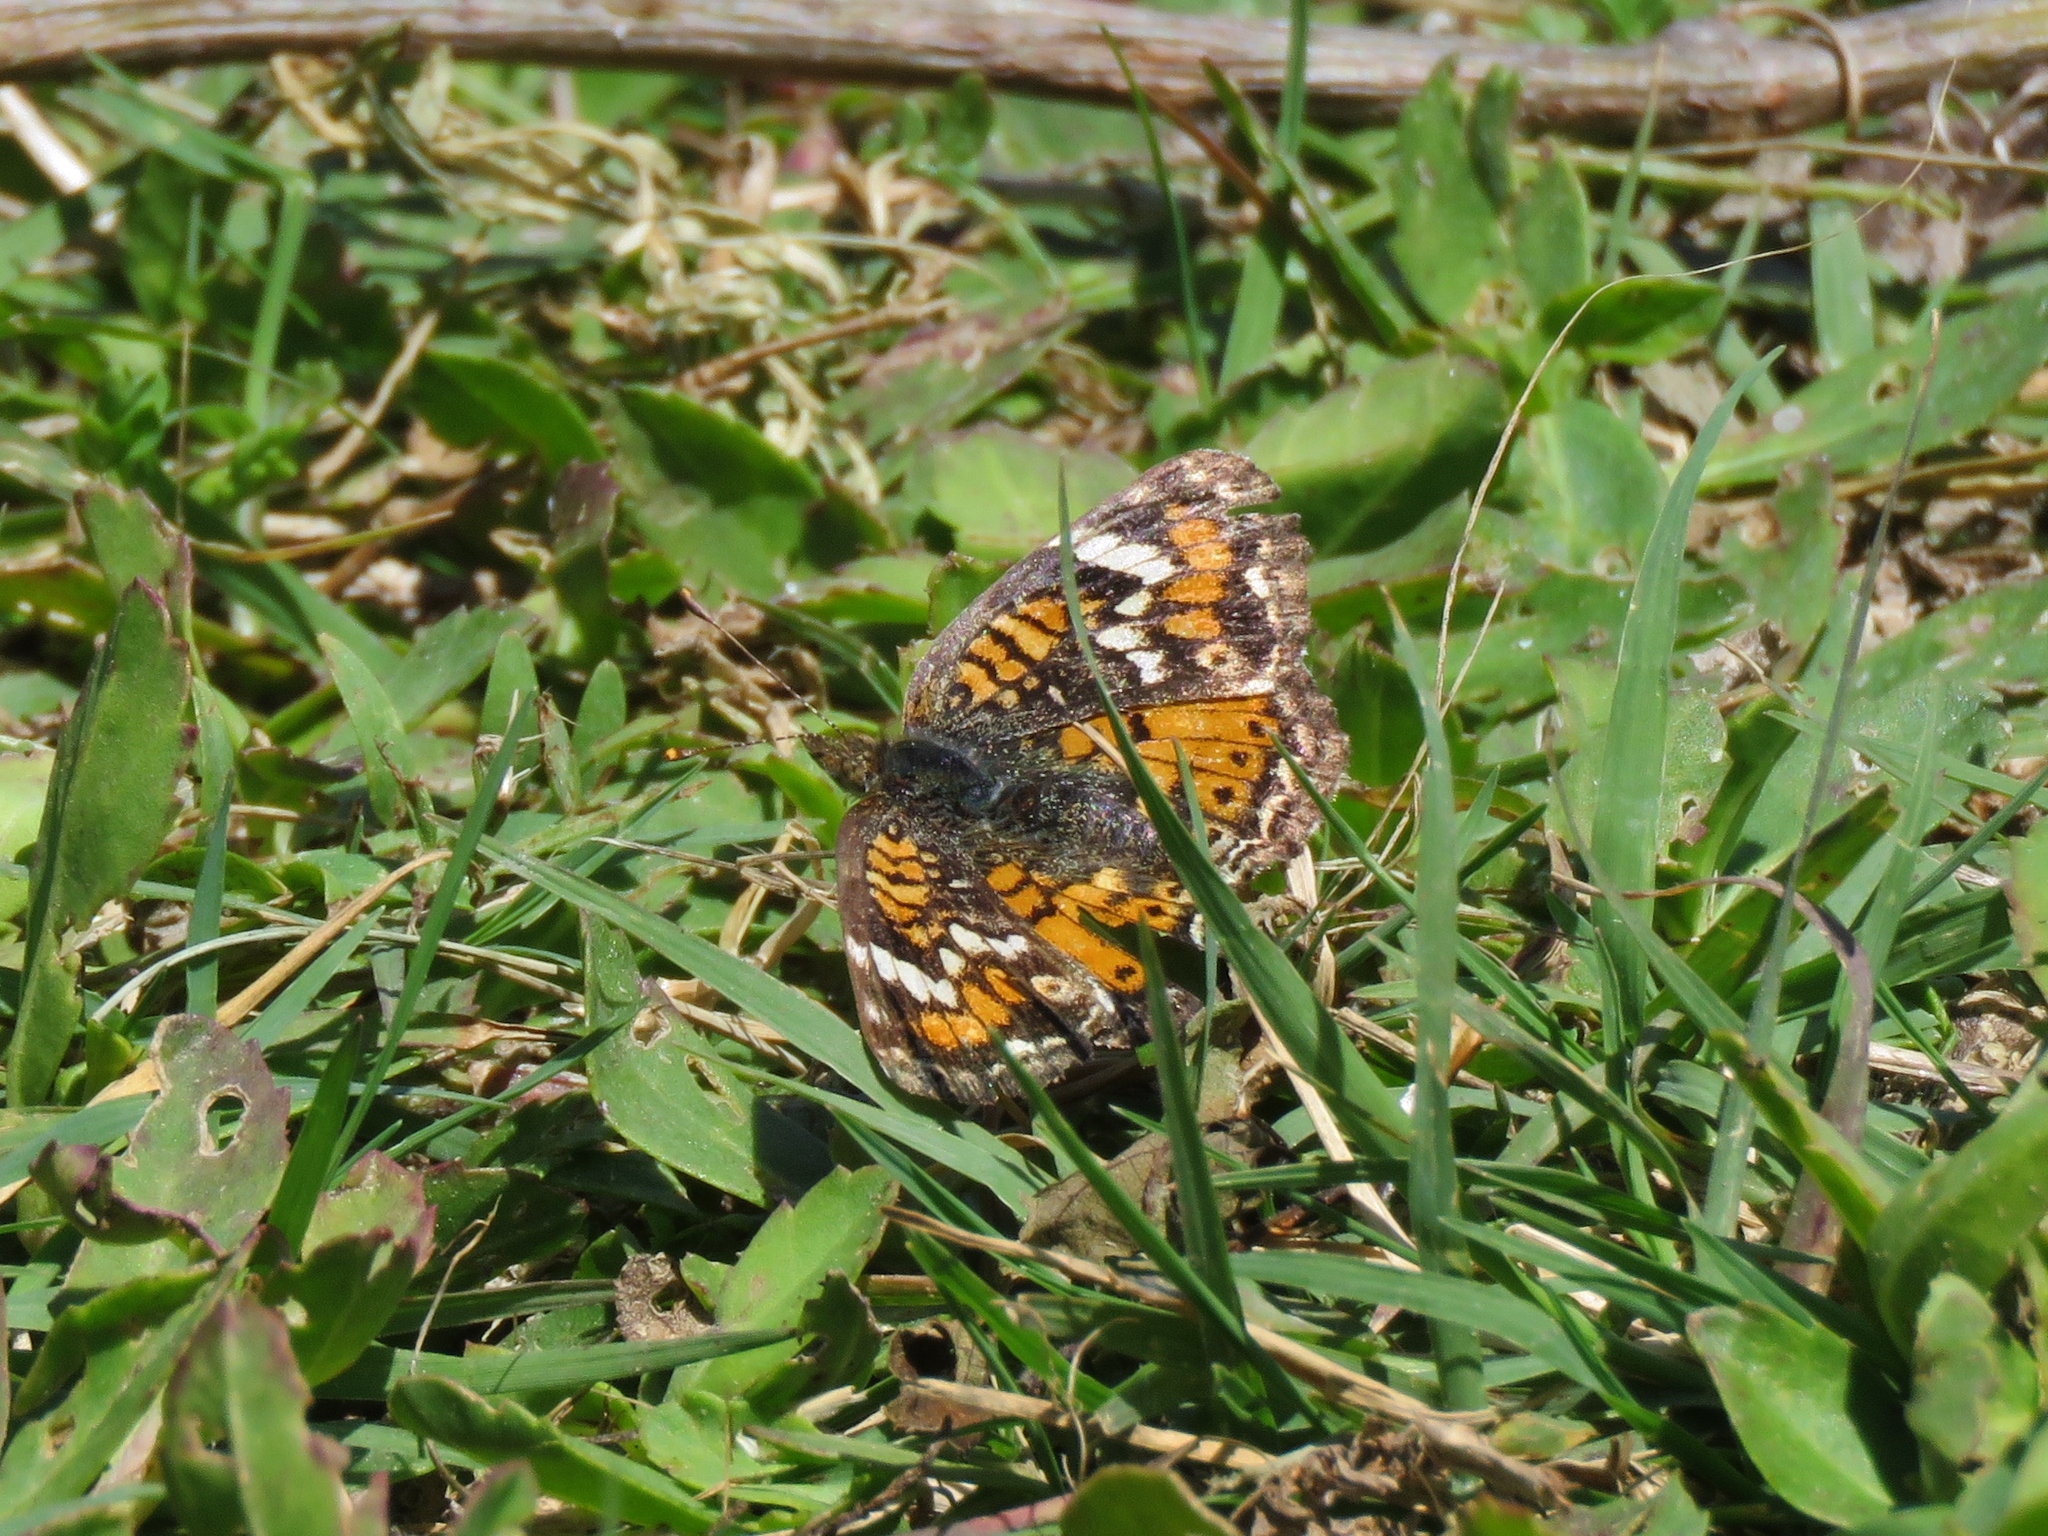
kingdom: Animalia
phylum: Arthropoda
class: Insecta
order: Lepidoptera
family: Nymphalidae
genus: Phyciodes
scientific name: Phyciodes phaon
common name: Phaon crescent
